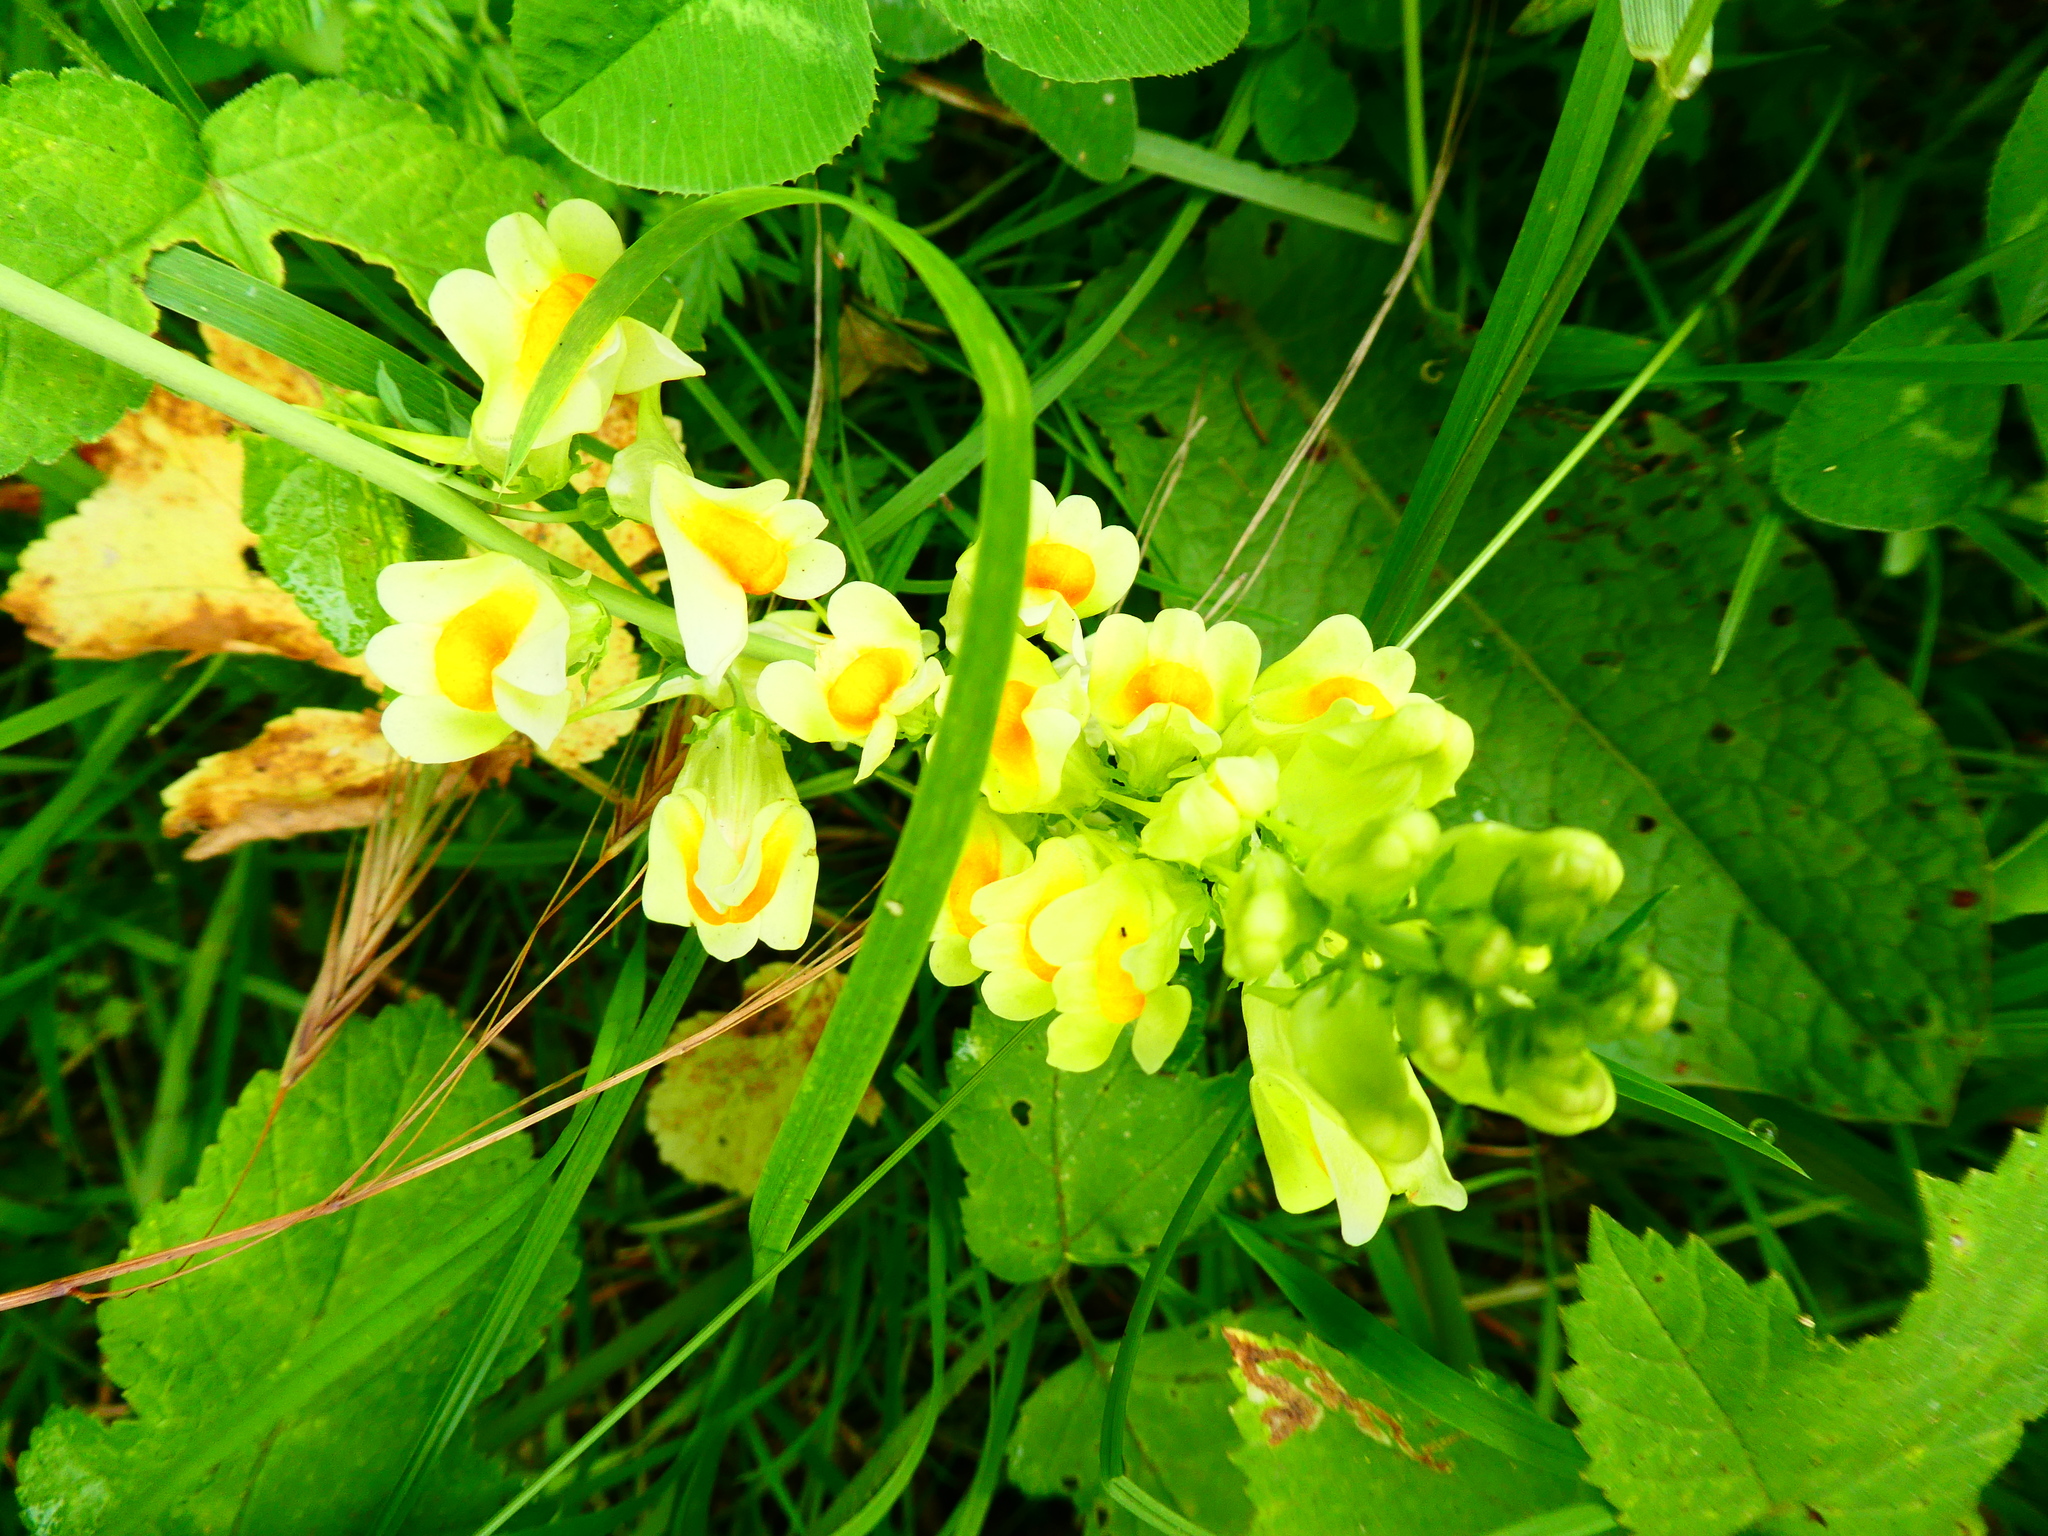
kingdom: Plantae
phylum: Tracheophyta
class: Magnoliopsida
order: Lamiales
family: Plantaginaceae
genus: Linaria
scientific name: Linaria vulgaris
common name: Butter and eggs
